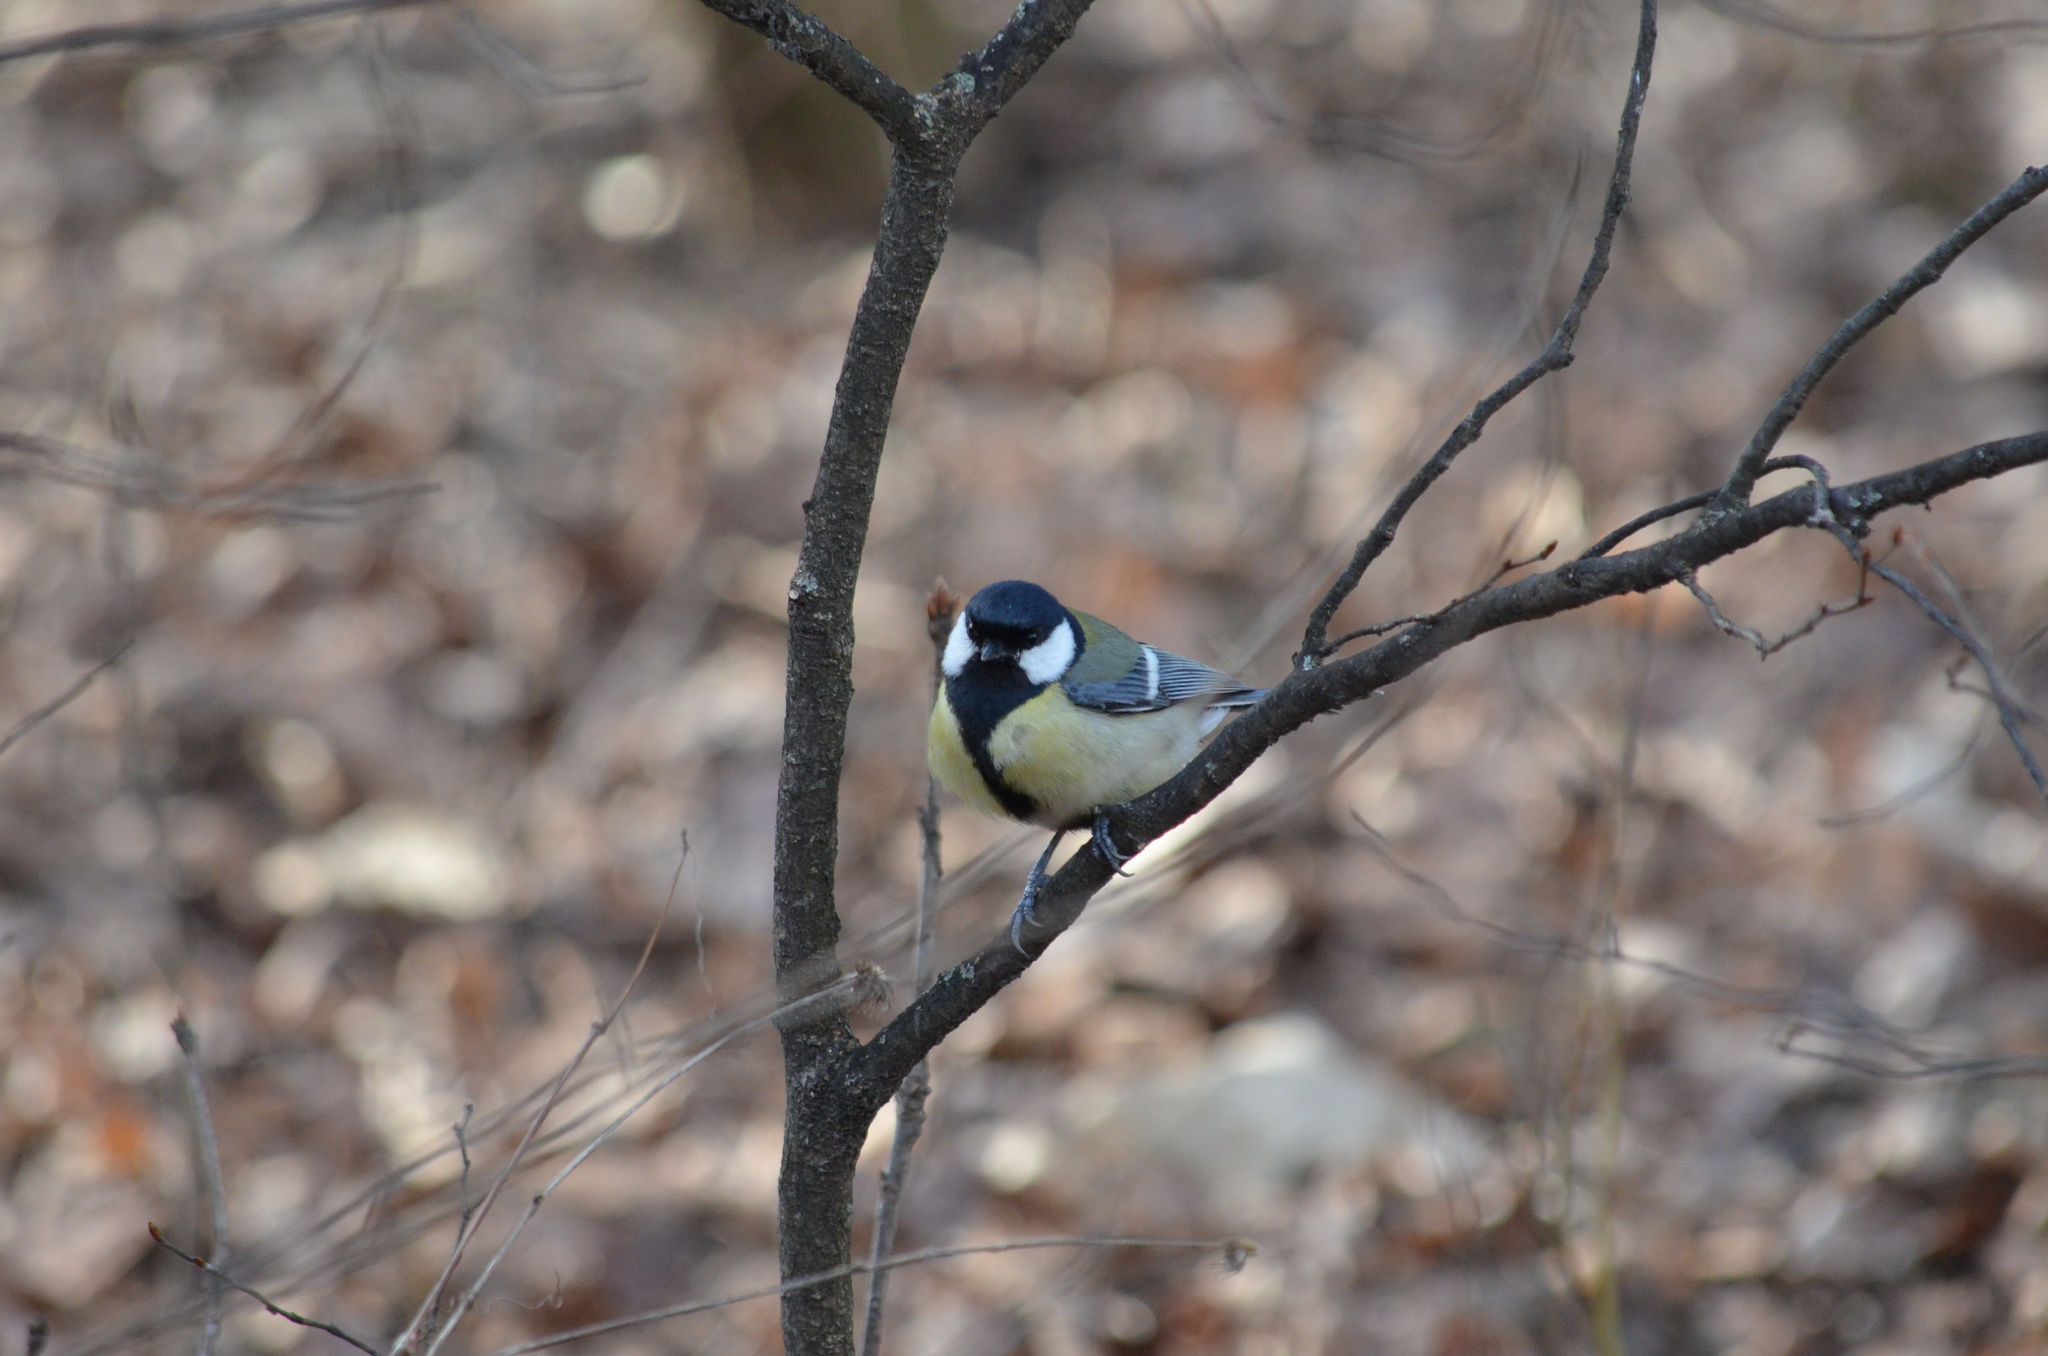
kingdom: Animalia
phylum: Chordata
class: Aves
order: Passeriformes
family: Paridae
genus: Parus
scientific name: Parus major
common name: Great tit
